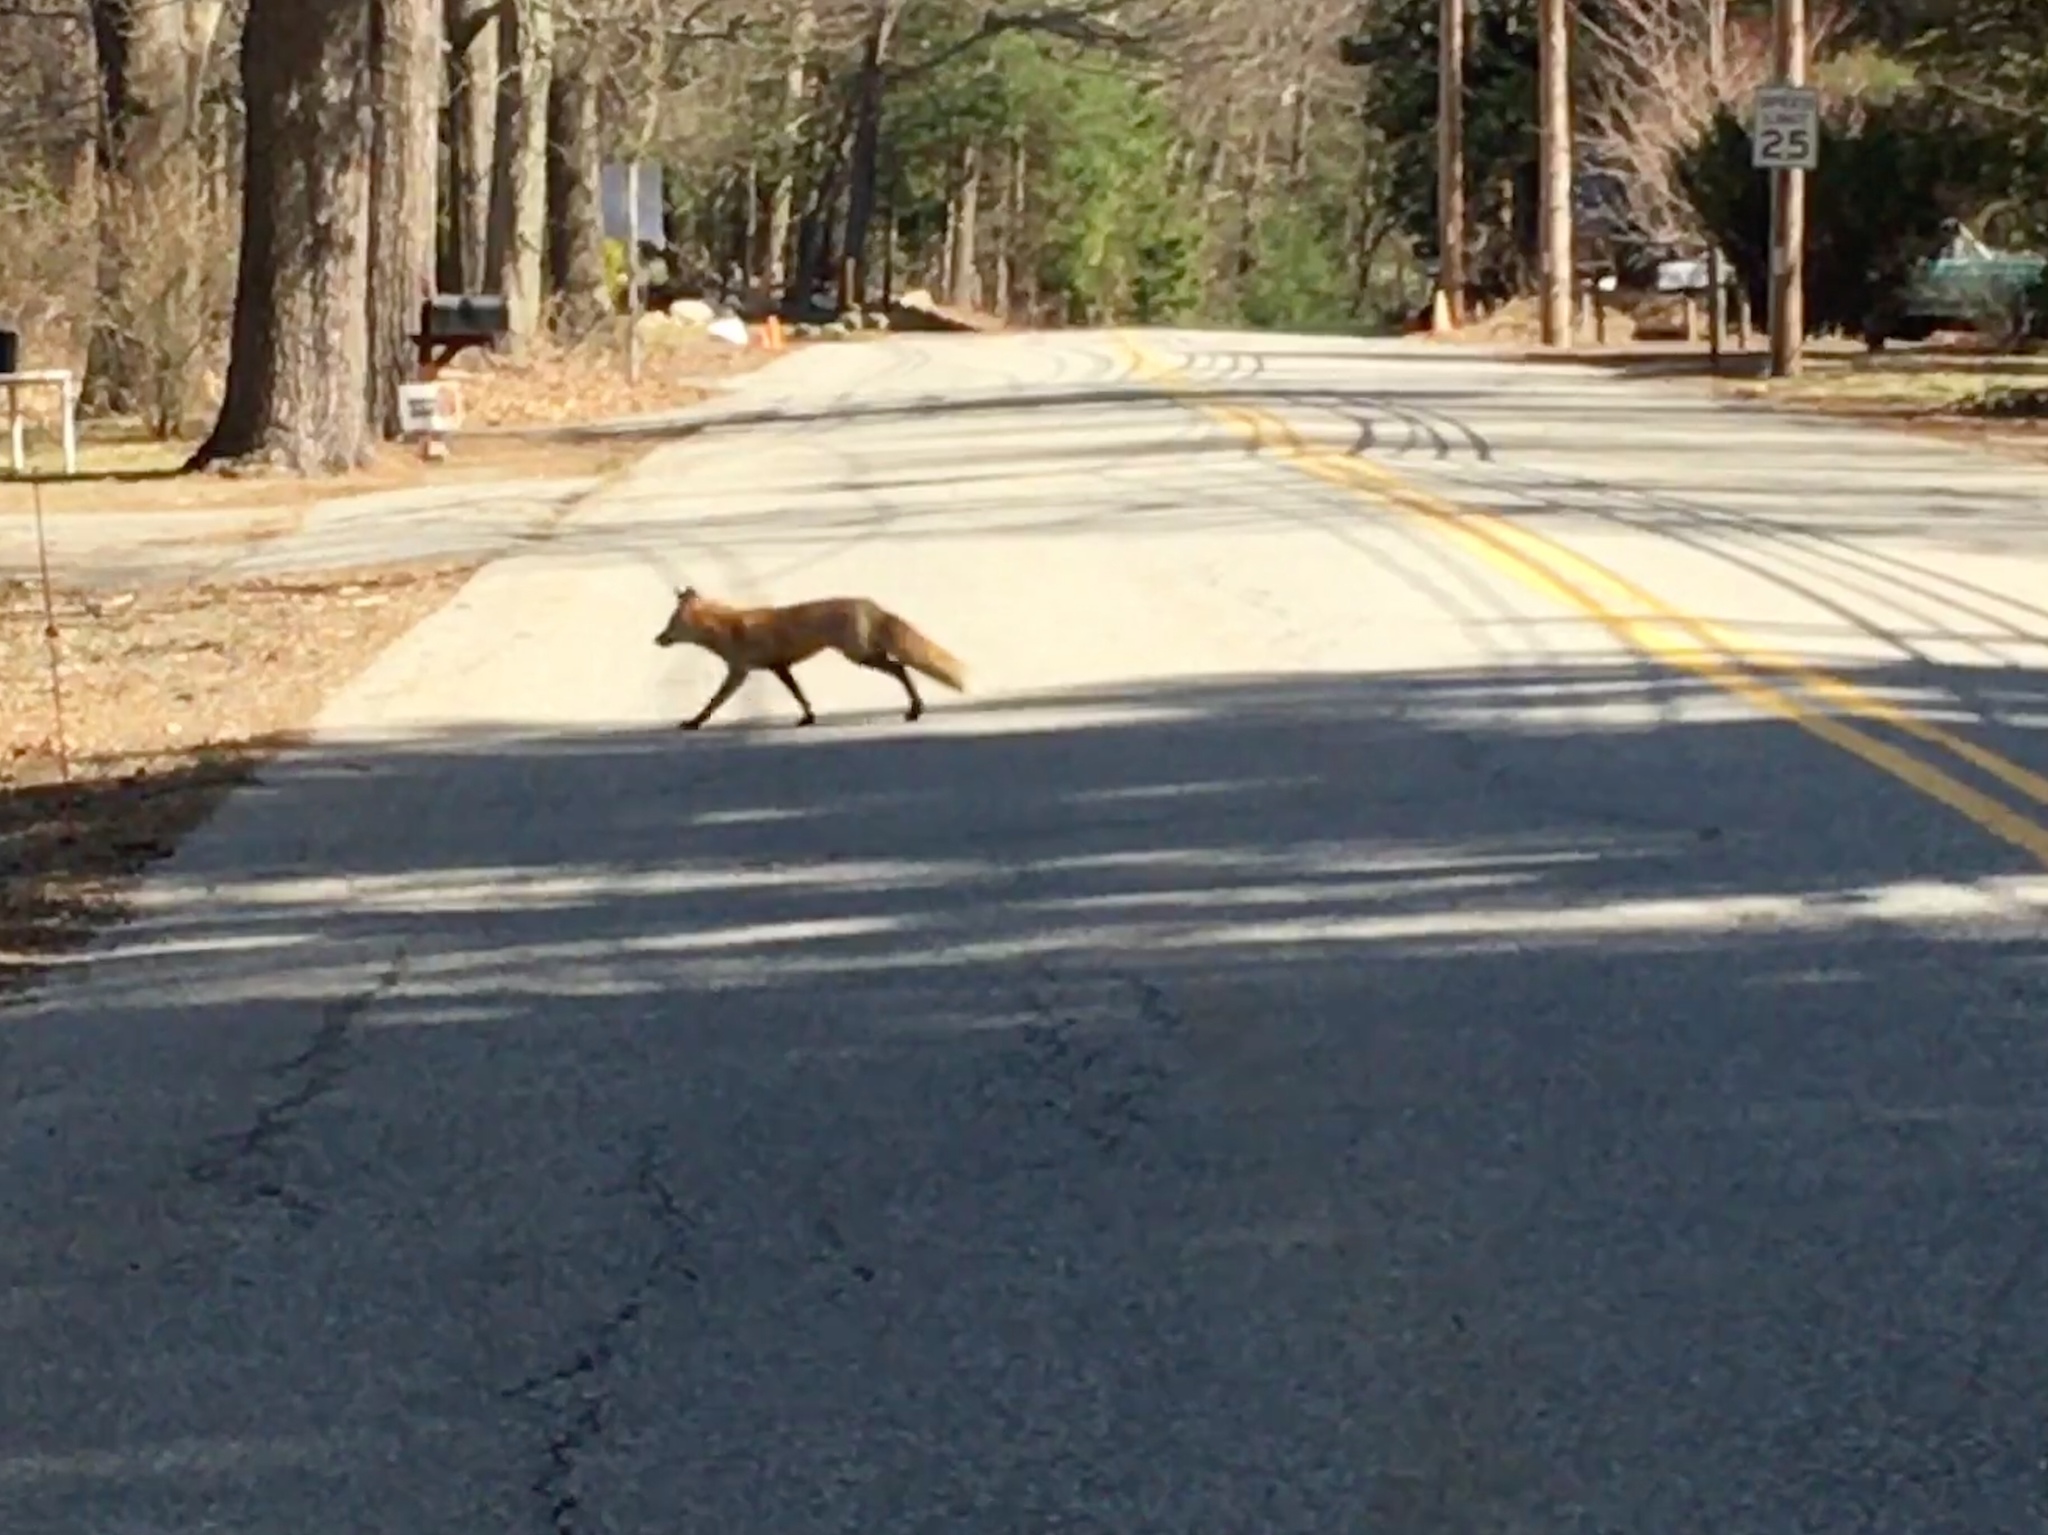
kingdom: Animalia
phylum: Chordata
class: Mammalia
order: Carnivora
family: Canidae
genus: Vulpes
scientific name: Vulpes vulpes
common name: Red fox
